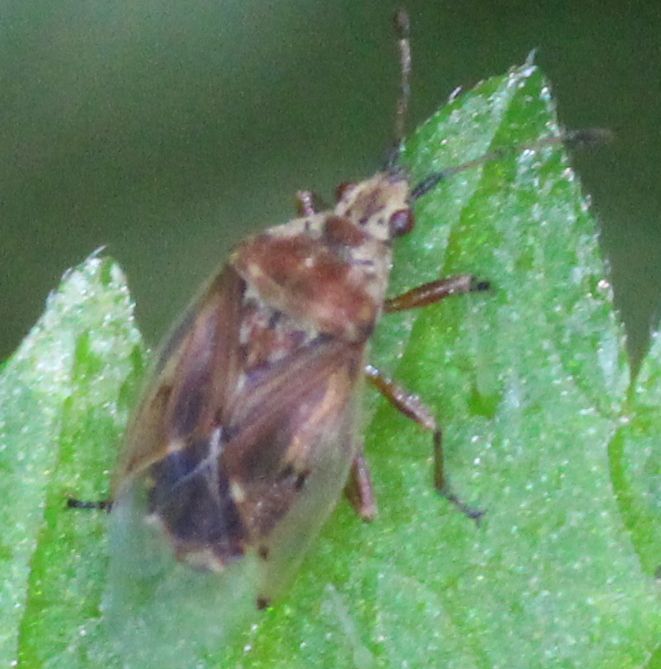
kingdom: Animalia
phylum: Arthropoda
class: Insecta
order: Hemiptera
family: Lygaeidae
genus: Kleidocerys
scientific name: Kleidocerys resedae
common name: Birch catkin bug
